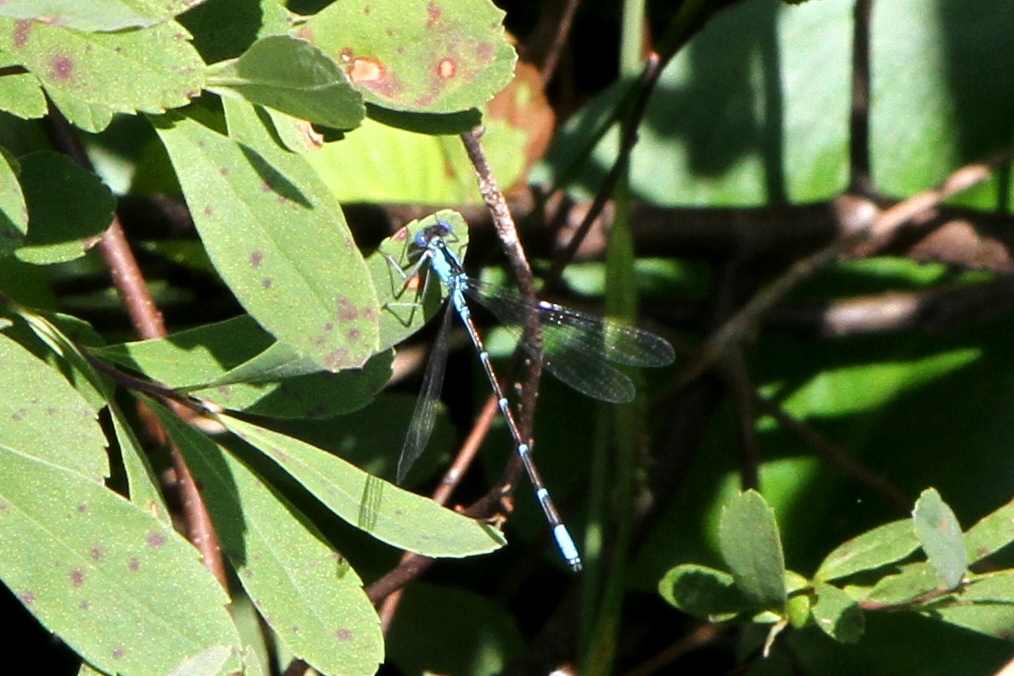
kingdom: Animalia
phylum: Arthropoda
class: Insecta
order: Odonata
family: Coenagrionidae
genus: Chromagrion
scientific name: Chromagrion conditum
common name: Aurora damsel
